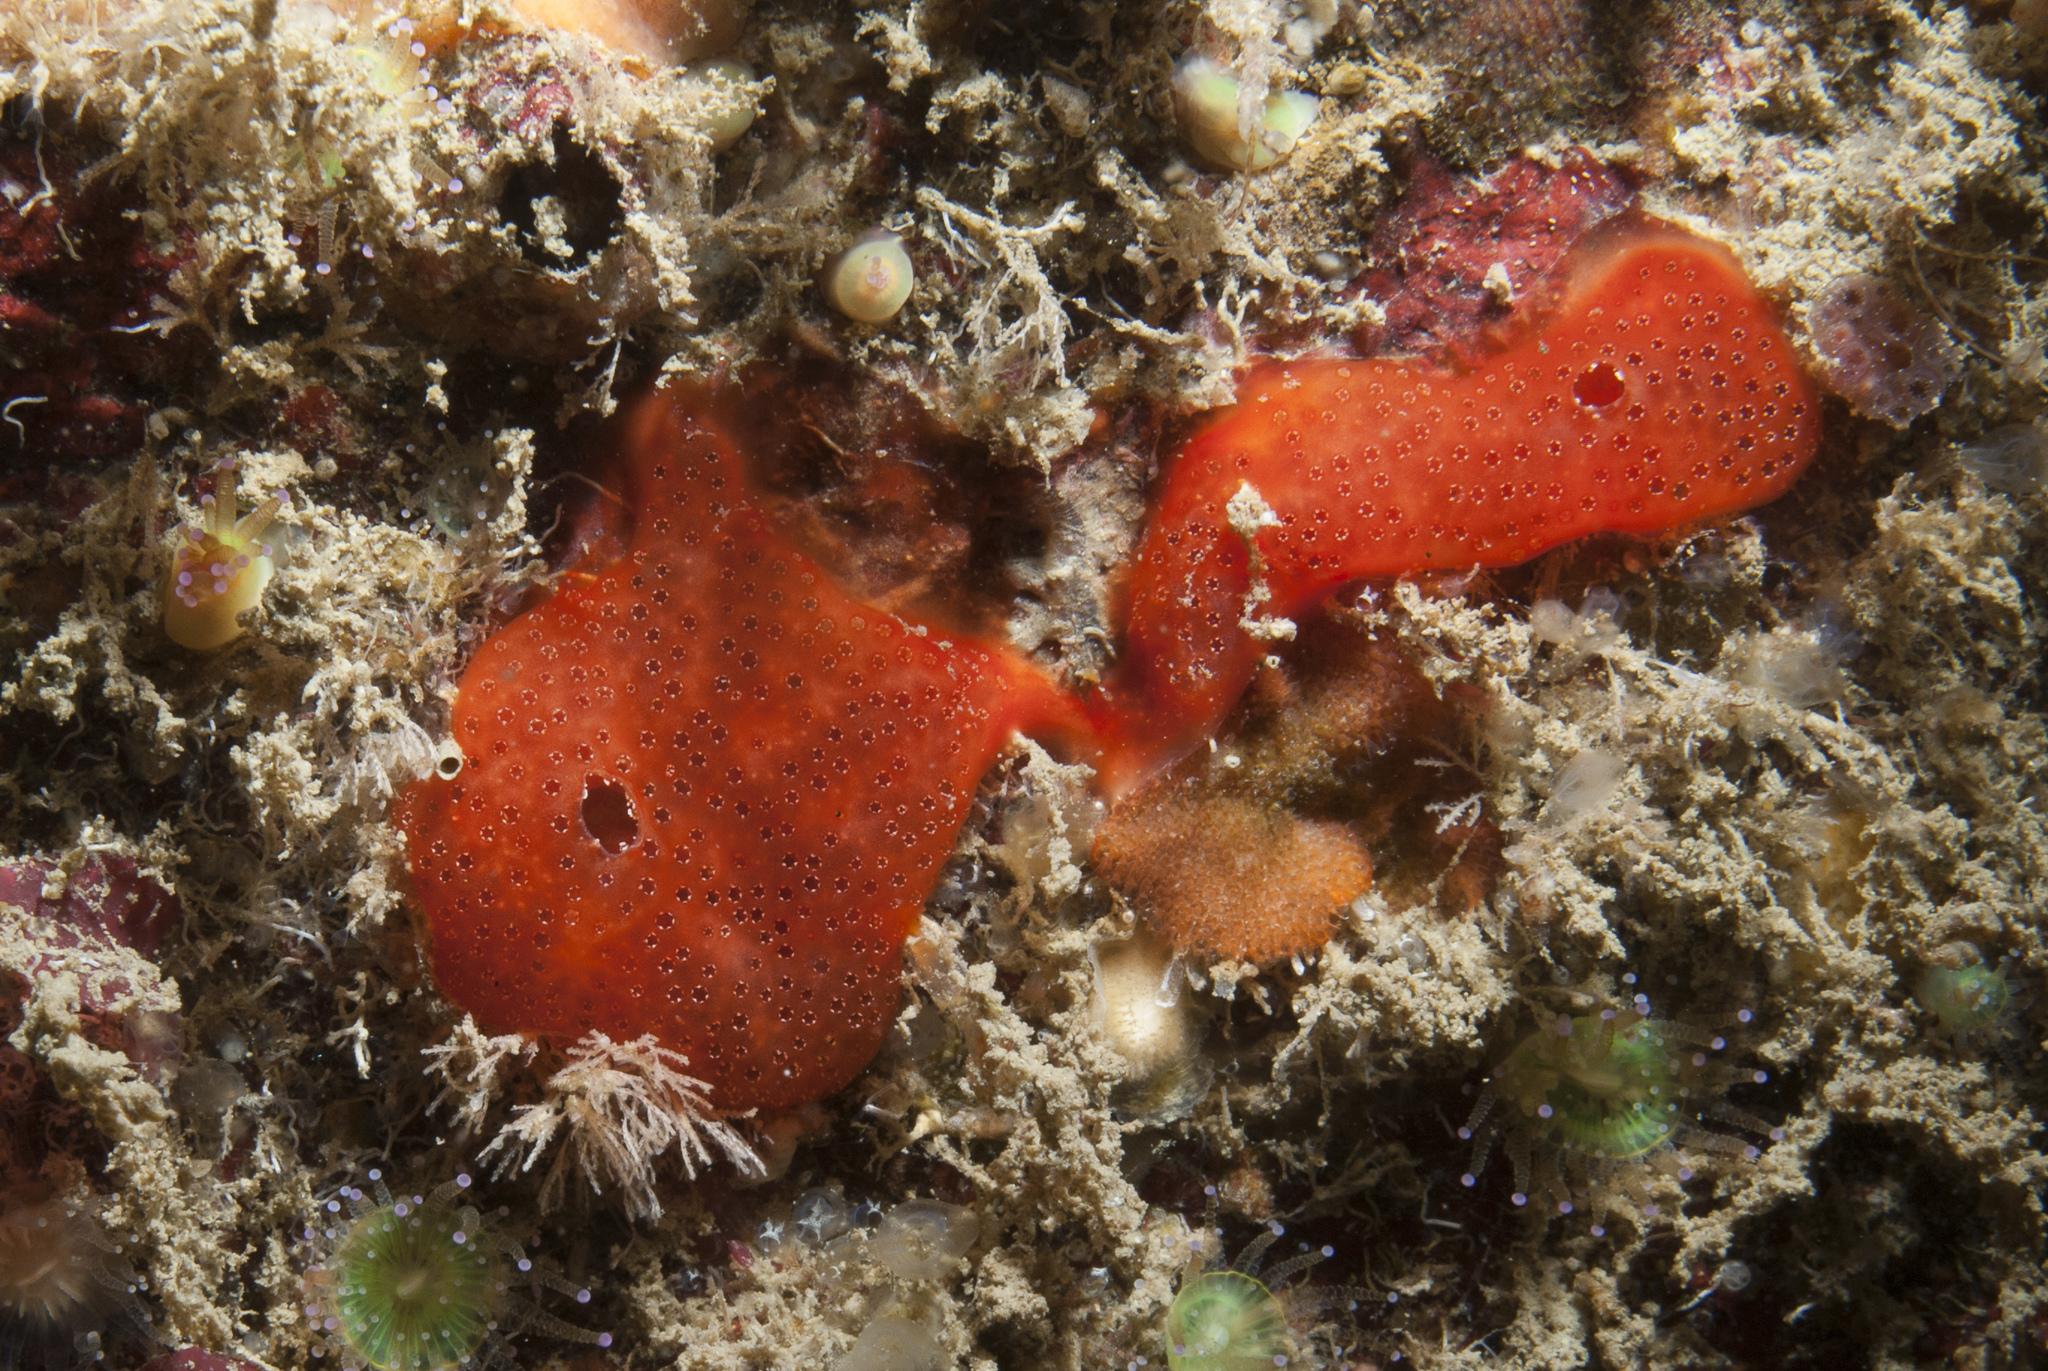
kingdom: Animalia
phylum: Chordata
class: Ascidiacea
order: Aplousobranchia
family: Didemnidae
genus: Polysyncraton
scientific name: Polysyncraton lacazei
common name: Colonial sea squirt
